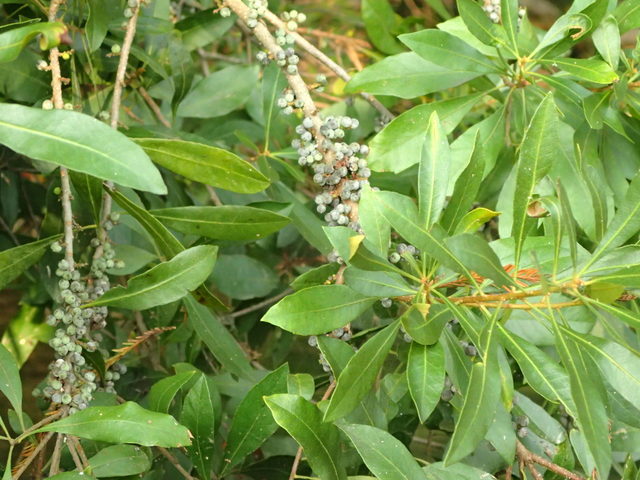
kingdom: Plantae
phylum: Tracheophyta
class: Magnoliopsida
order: Fagales
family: Myricaceae
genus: Morella
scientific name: Morella cerifera
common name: Wax myrtle
